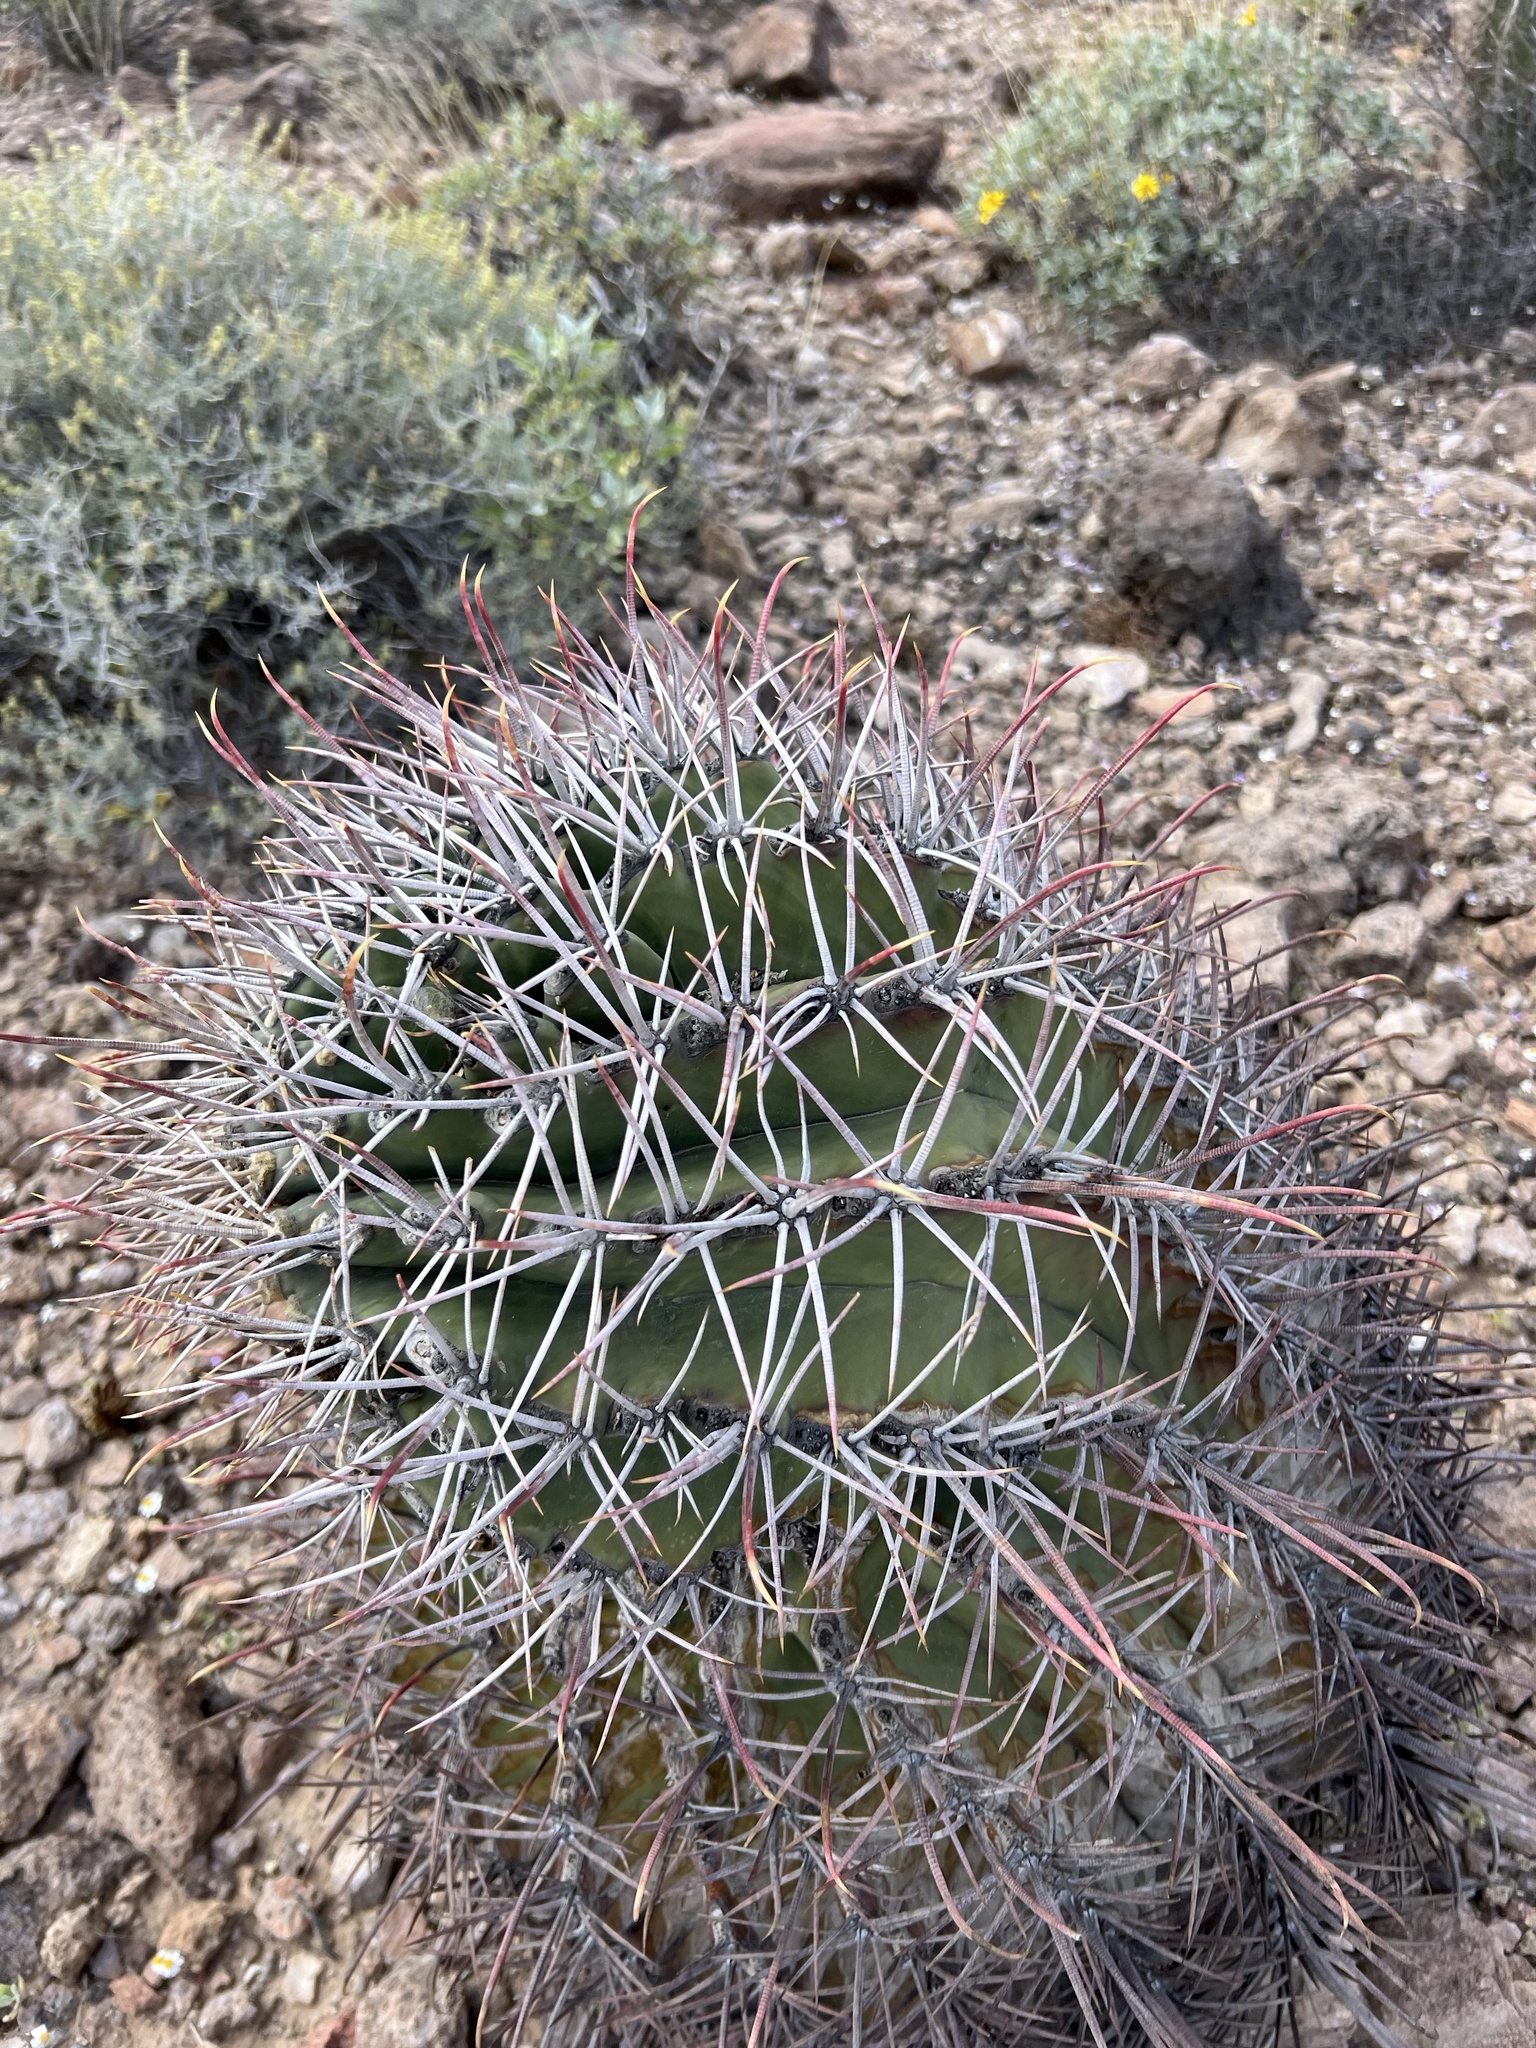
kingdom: Plantae
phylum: Tracheophyta
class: Magnoliopsida
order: Caryophyllales
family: Cactaceae
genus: Ferocactus
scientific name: Ferocactus emoryi
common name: Emory's barrel cactus
